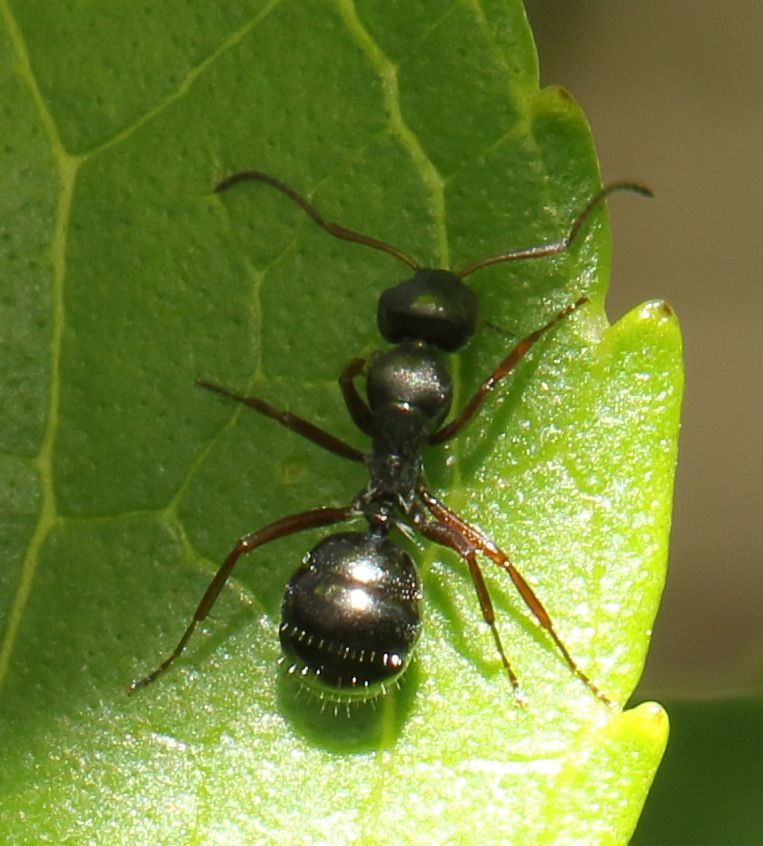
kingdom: Animalia
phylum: Arthropoda
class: Insecta
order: Hymenoptera
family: Formicidae
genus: Camponotus
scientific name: Camponotus scalaris
